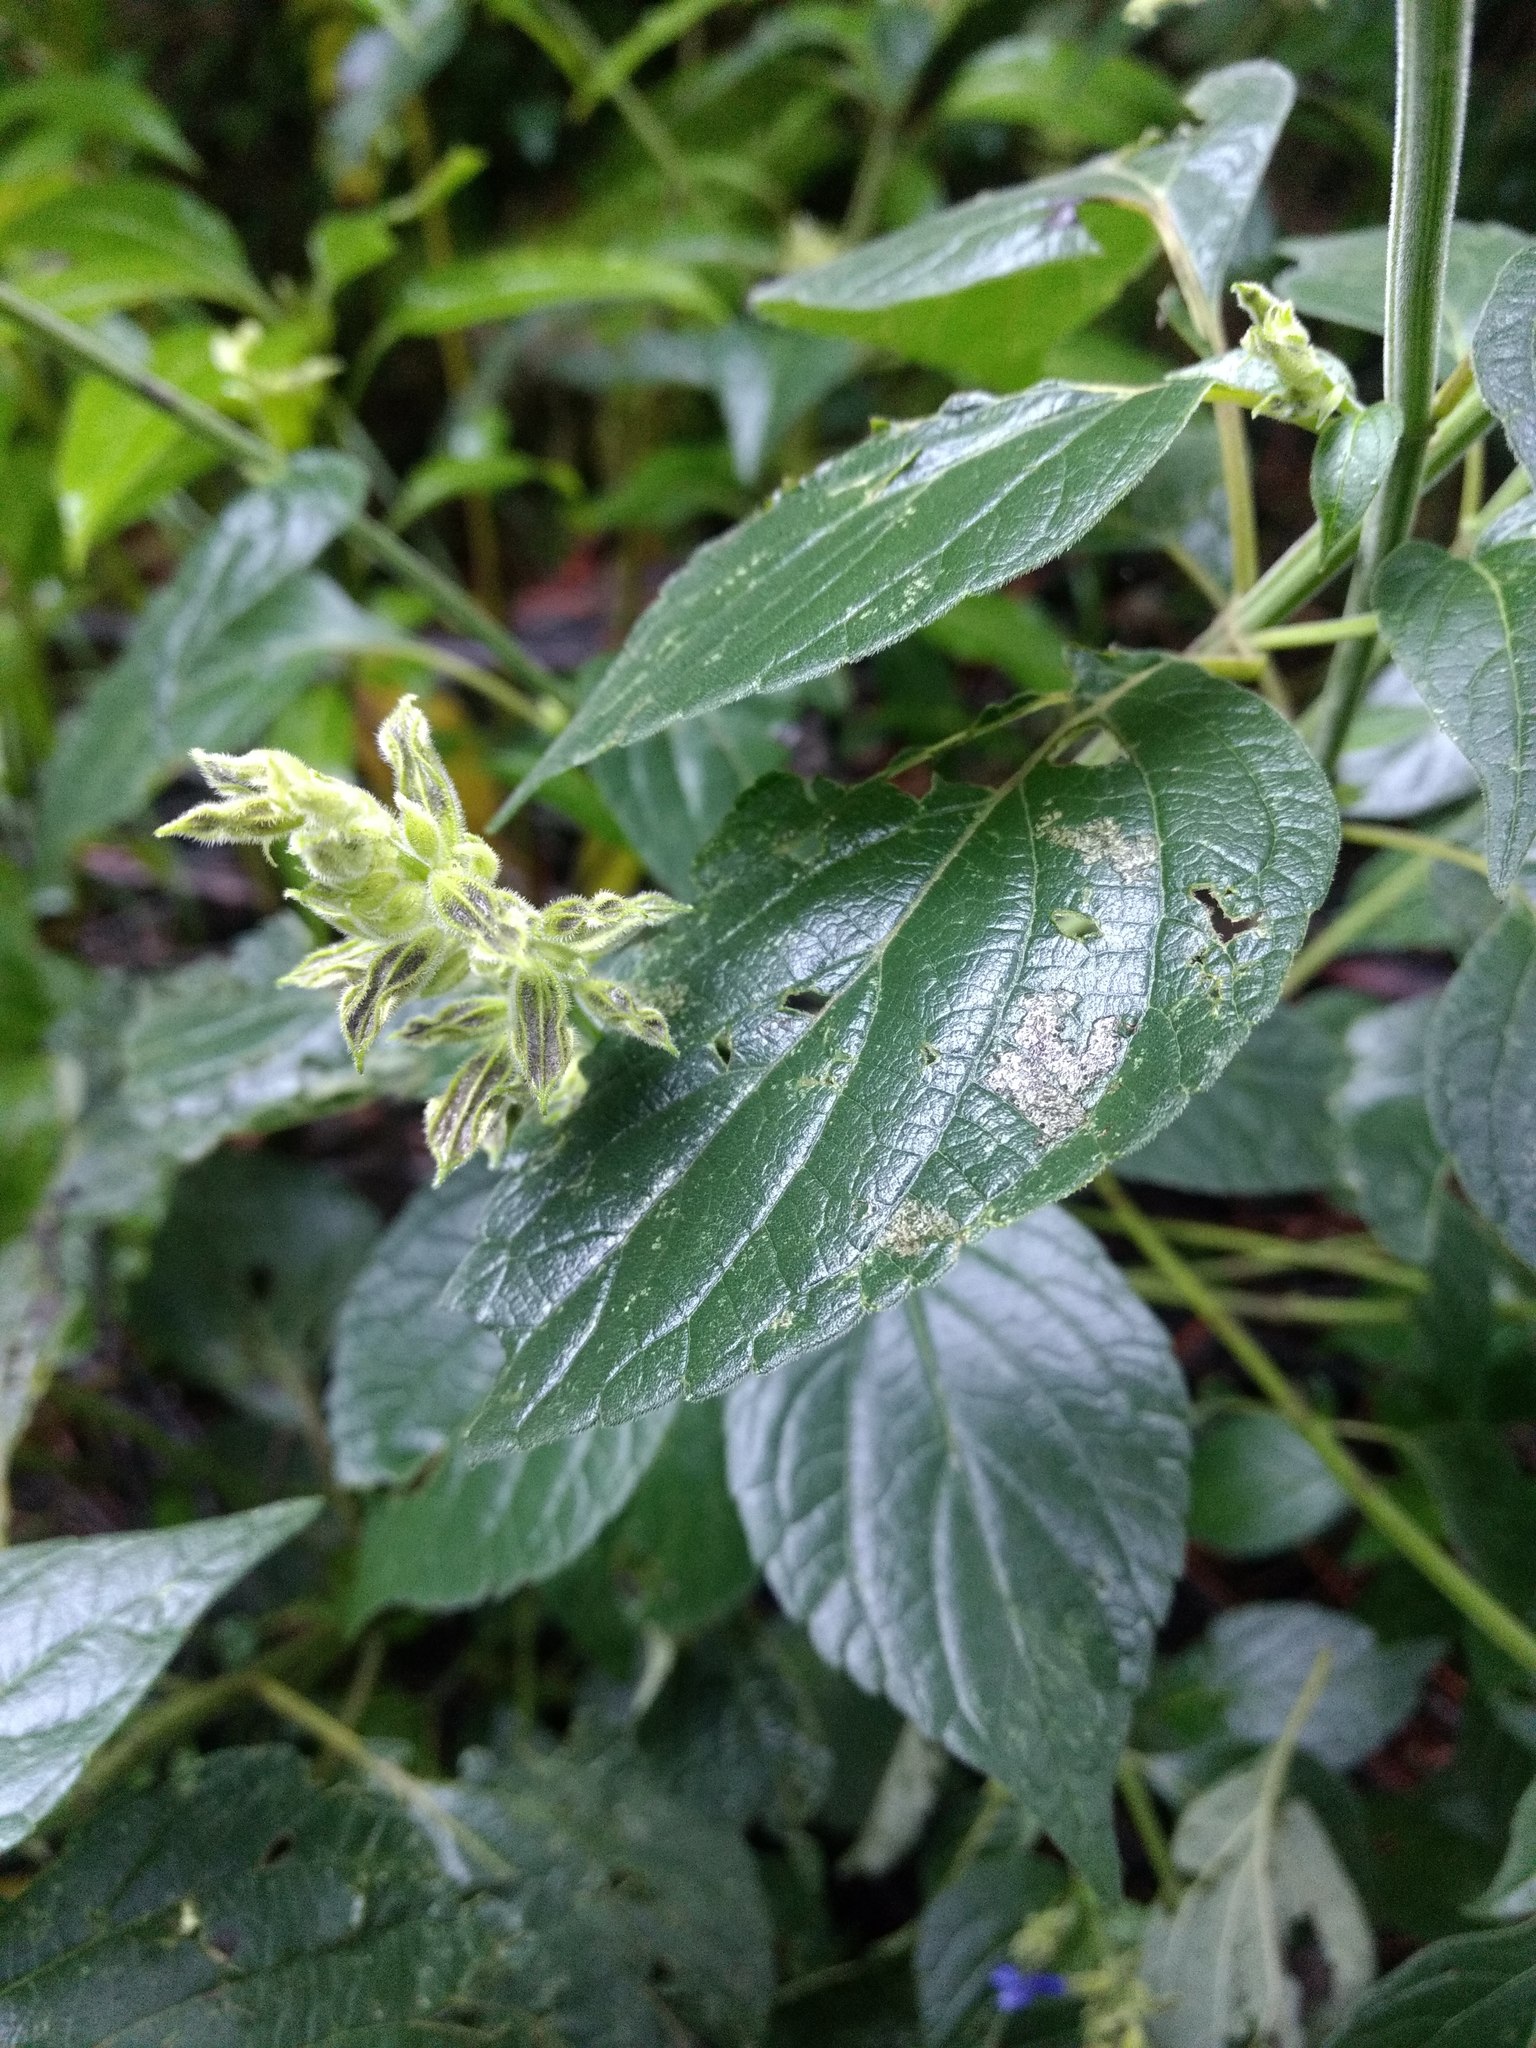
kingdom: Plantae
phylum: Tracheophyta
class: Magnoliopsida
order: Lamiales
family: Lamiaceae
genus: Salvia
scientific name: Salvia mexicana
